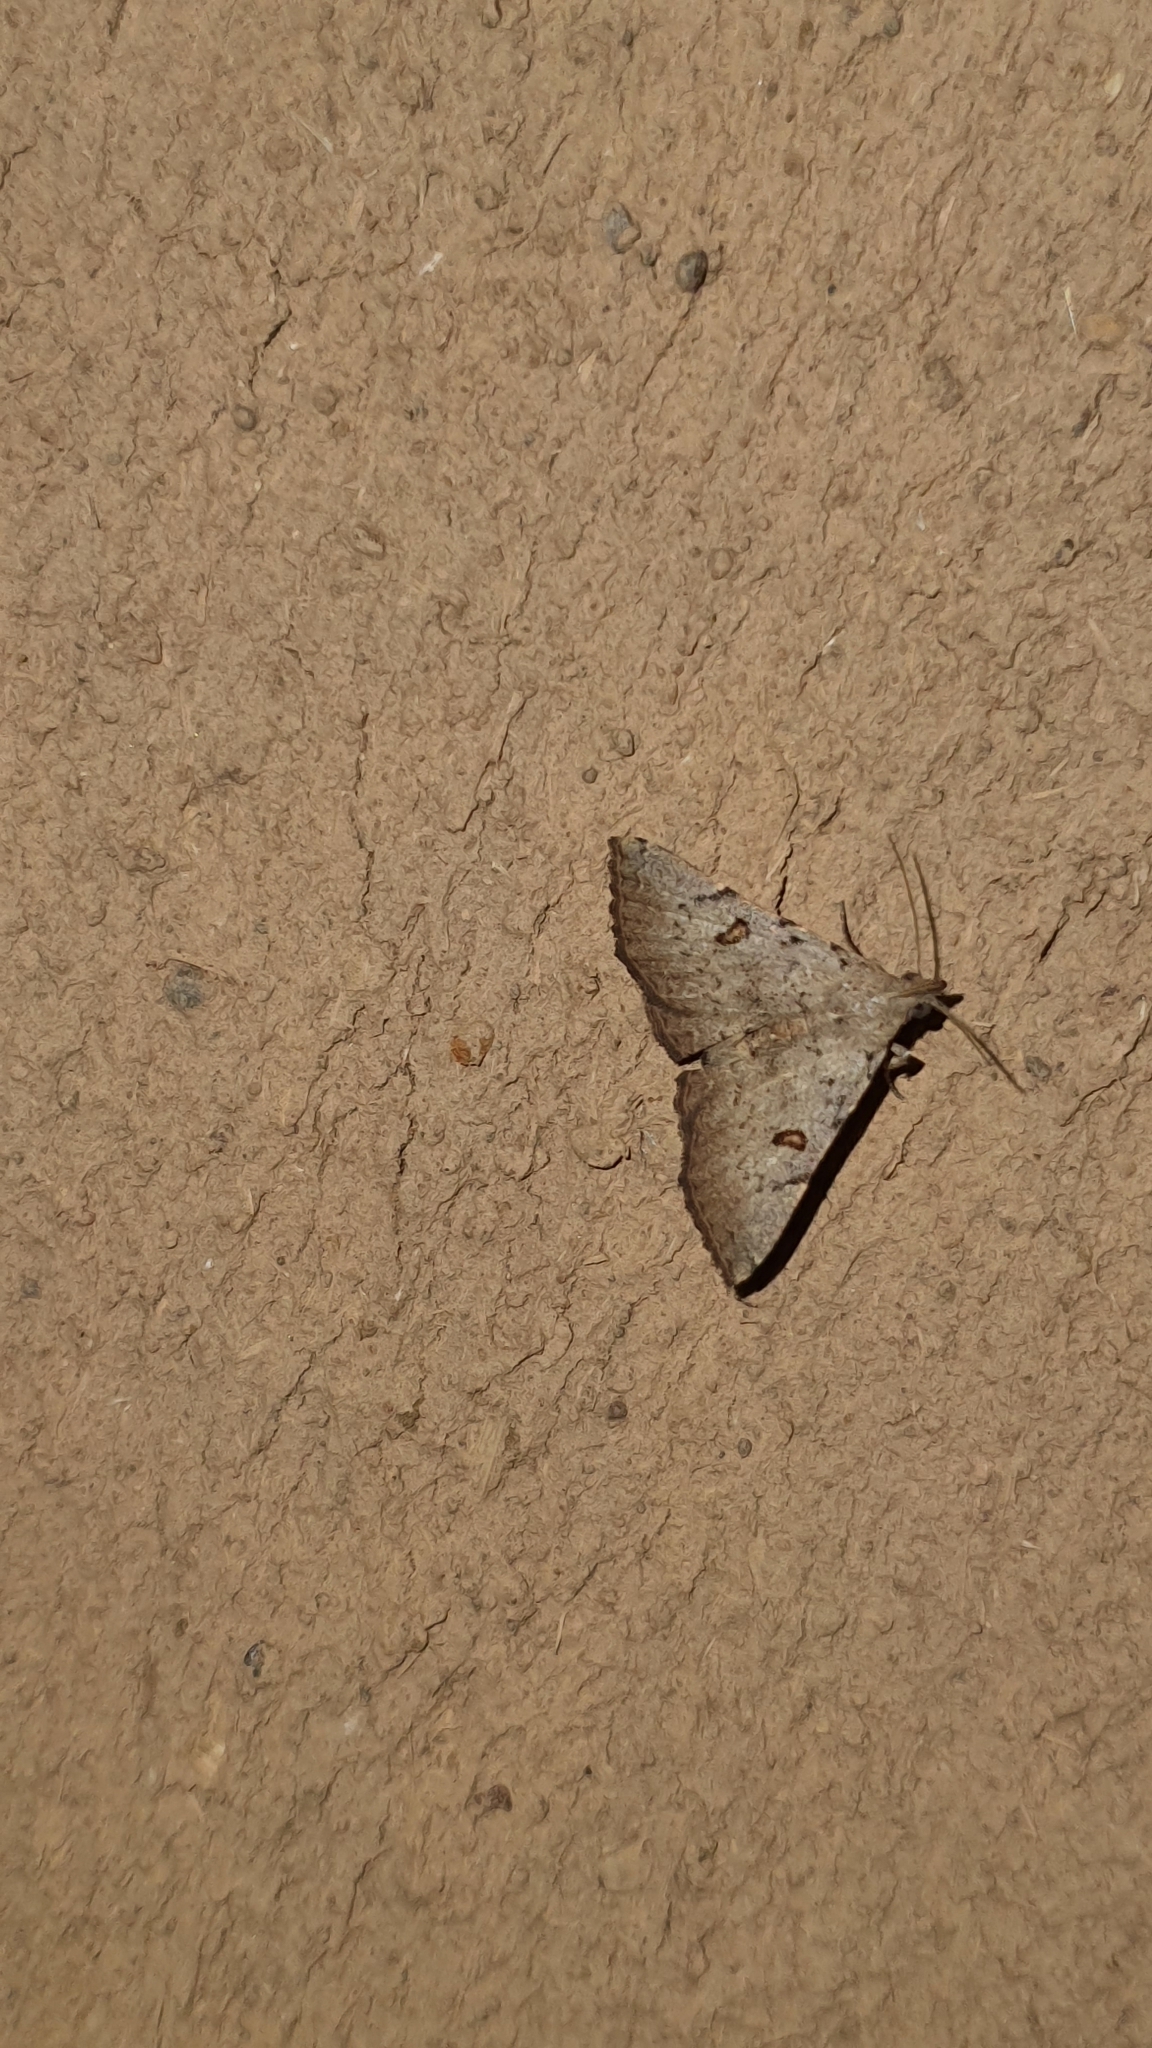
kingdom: Animalia
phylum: Arthropoda
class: Insecta
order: Lepidoptera
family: Erebidae
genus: Progonia
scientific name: Progonia oileusalis
